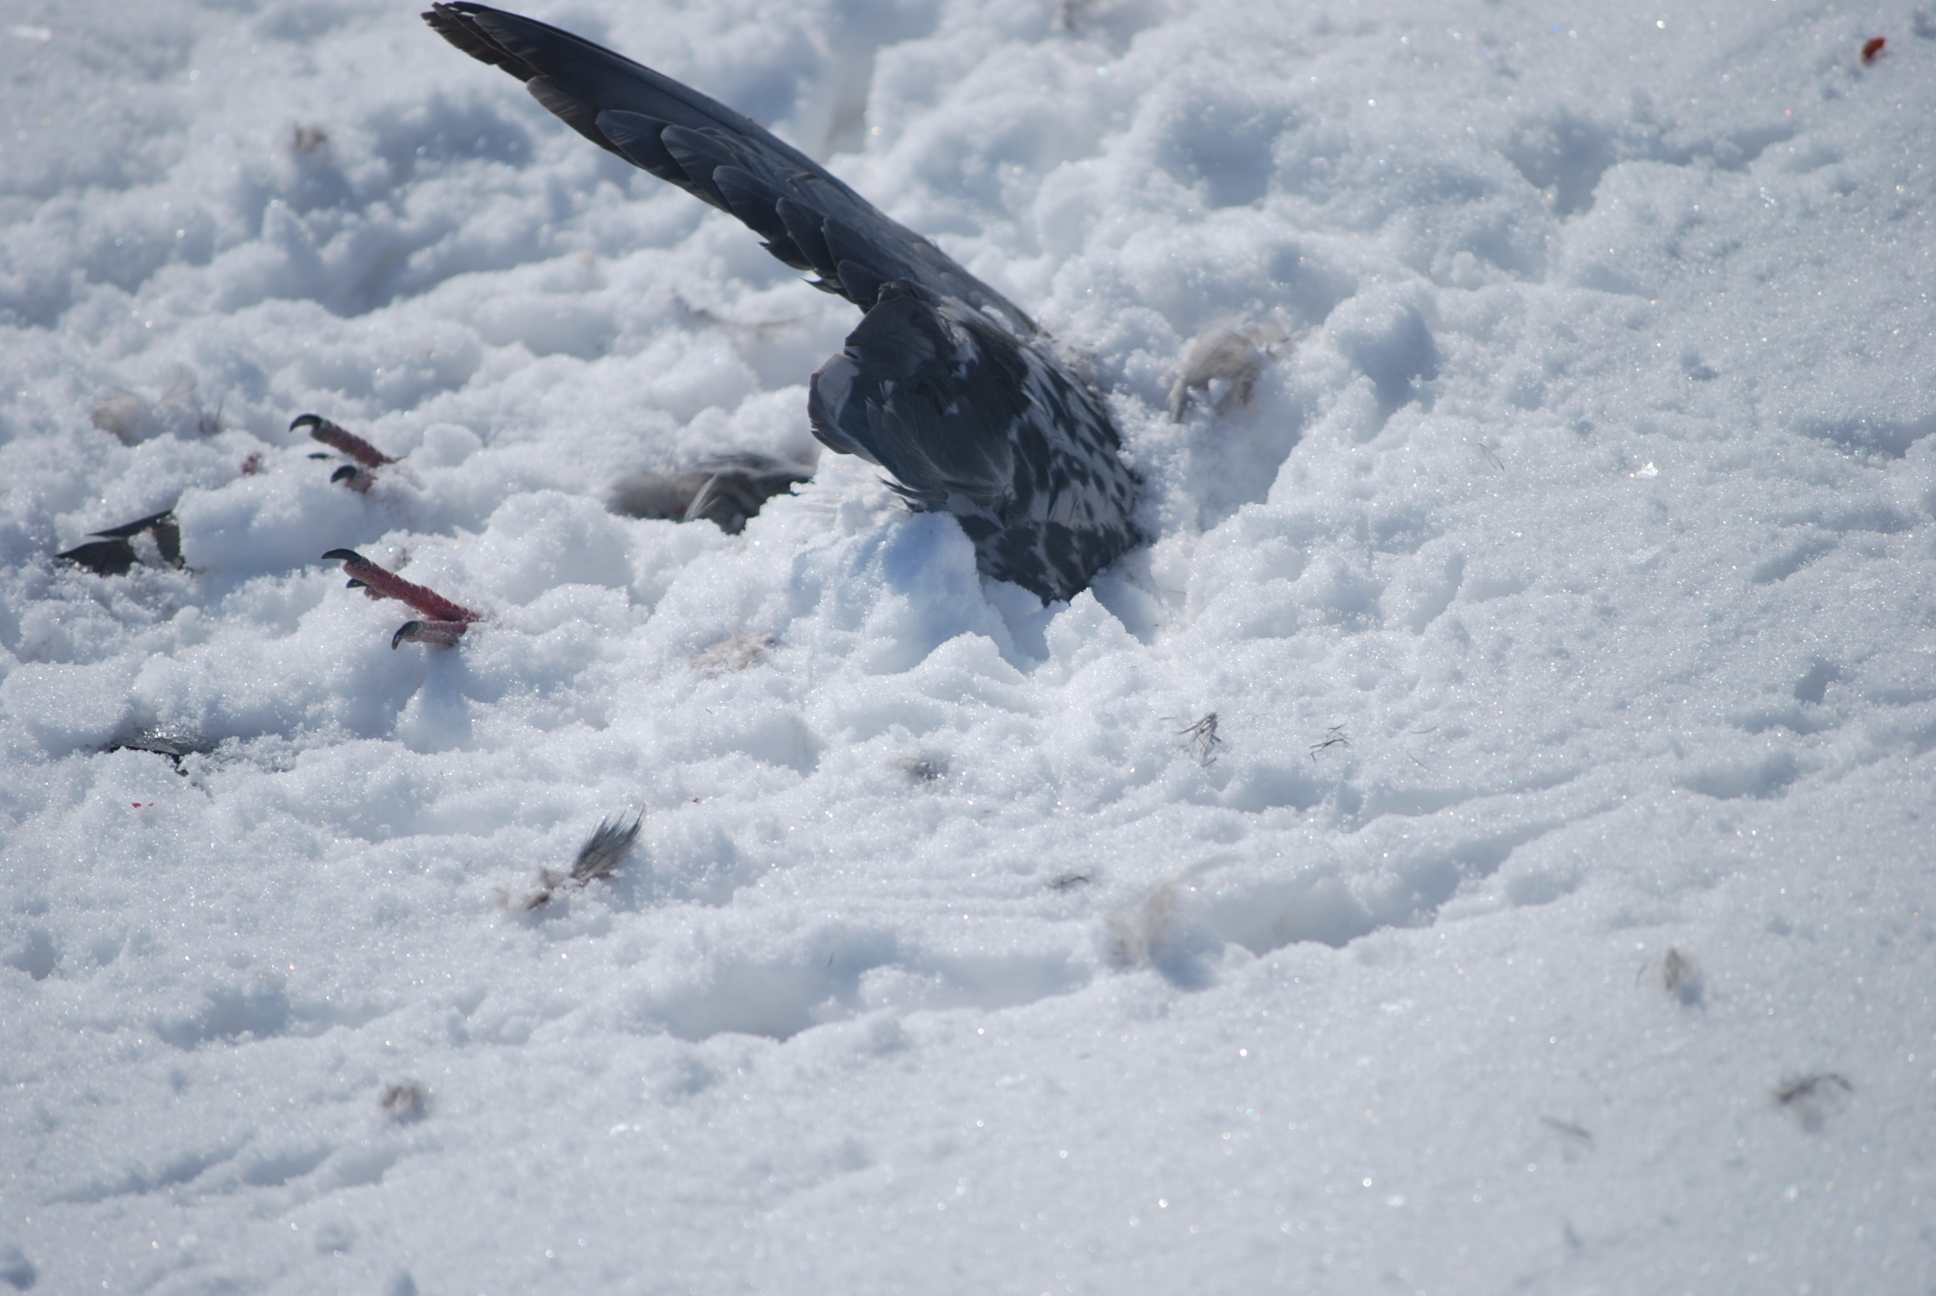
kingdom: Animalia
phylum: Chordata
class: Aves
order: Columbiformes
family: Columbidae
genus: Columba
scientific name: Columba livia
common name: Rock pigeon
